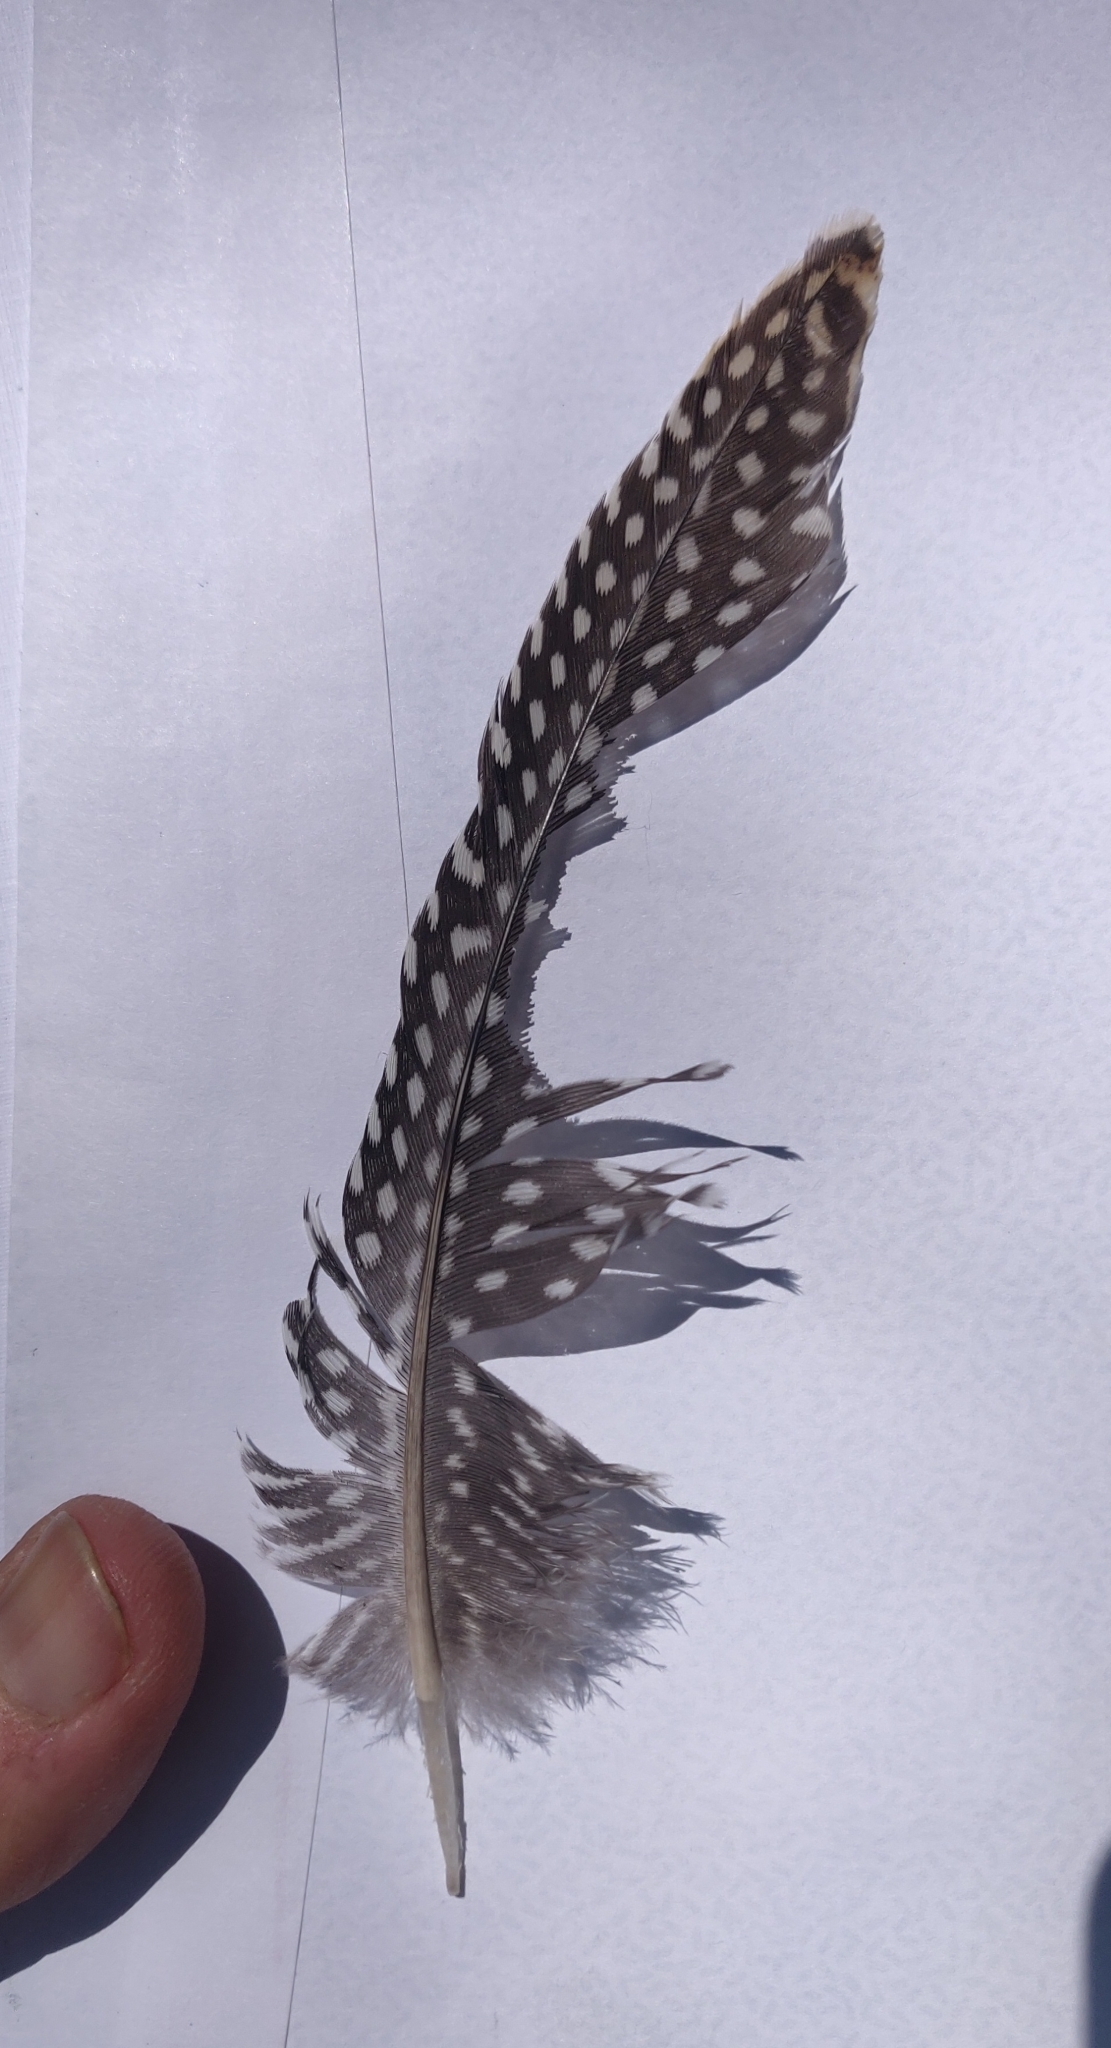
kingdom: Animalia
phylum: Chordata
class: Aves
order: Galliformes
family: Numididae
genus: Numida
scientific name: Numida meleagris
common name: Helmeted guineafowl
